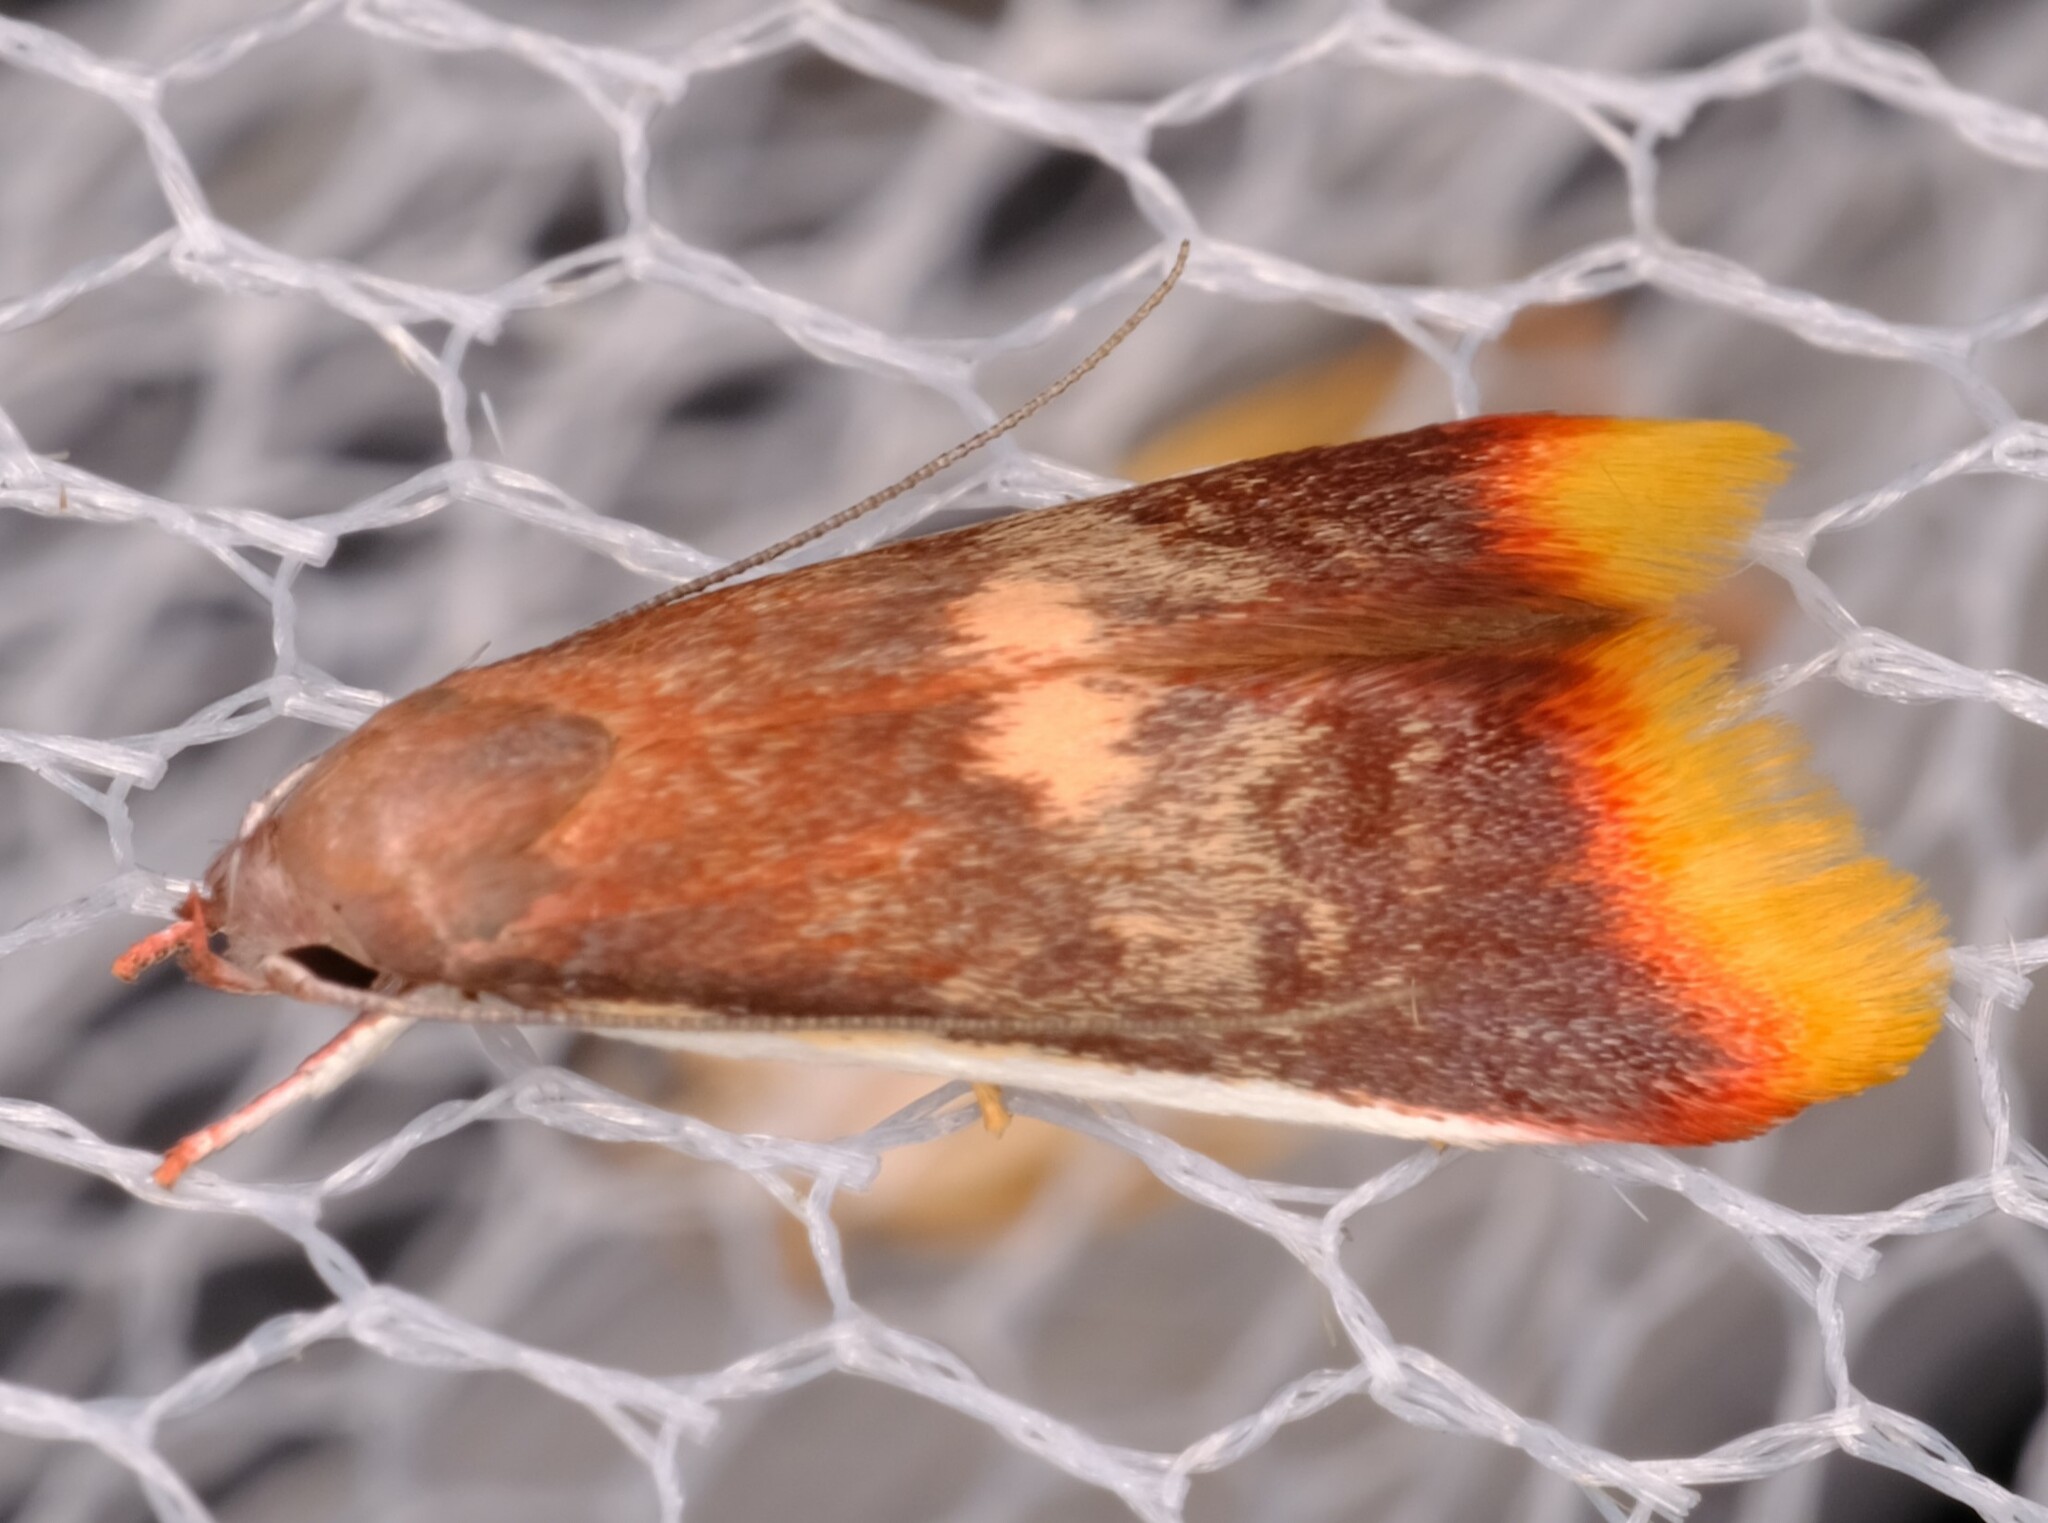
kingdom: Animalia
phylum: Arthropoda
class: Insecta
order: Lepidoptera
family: Oecophoridae
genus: Hemibela
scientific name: Hemibela callista
